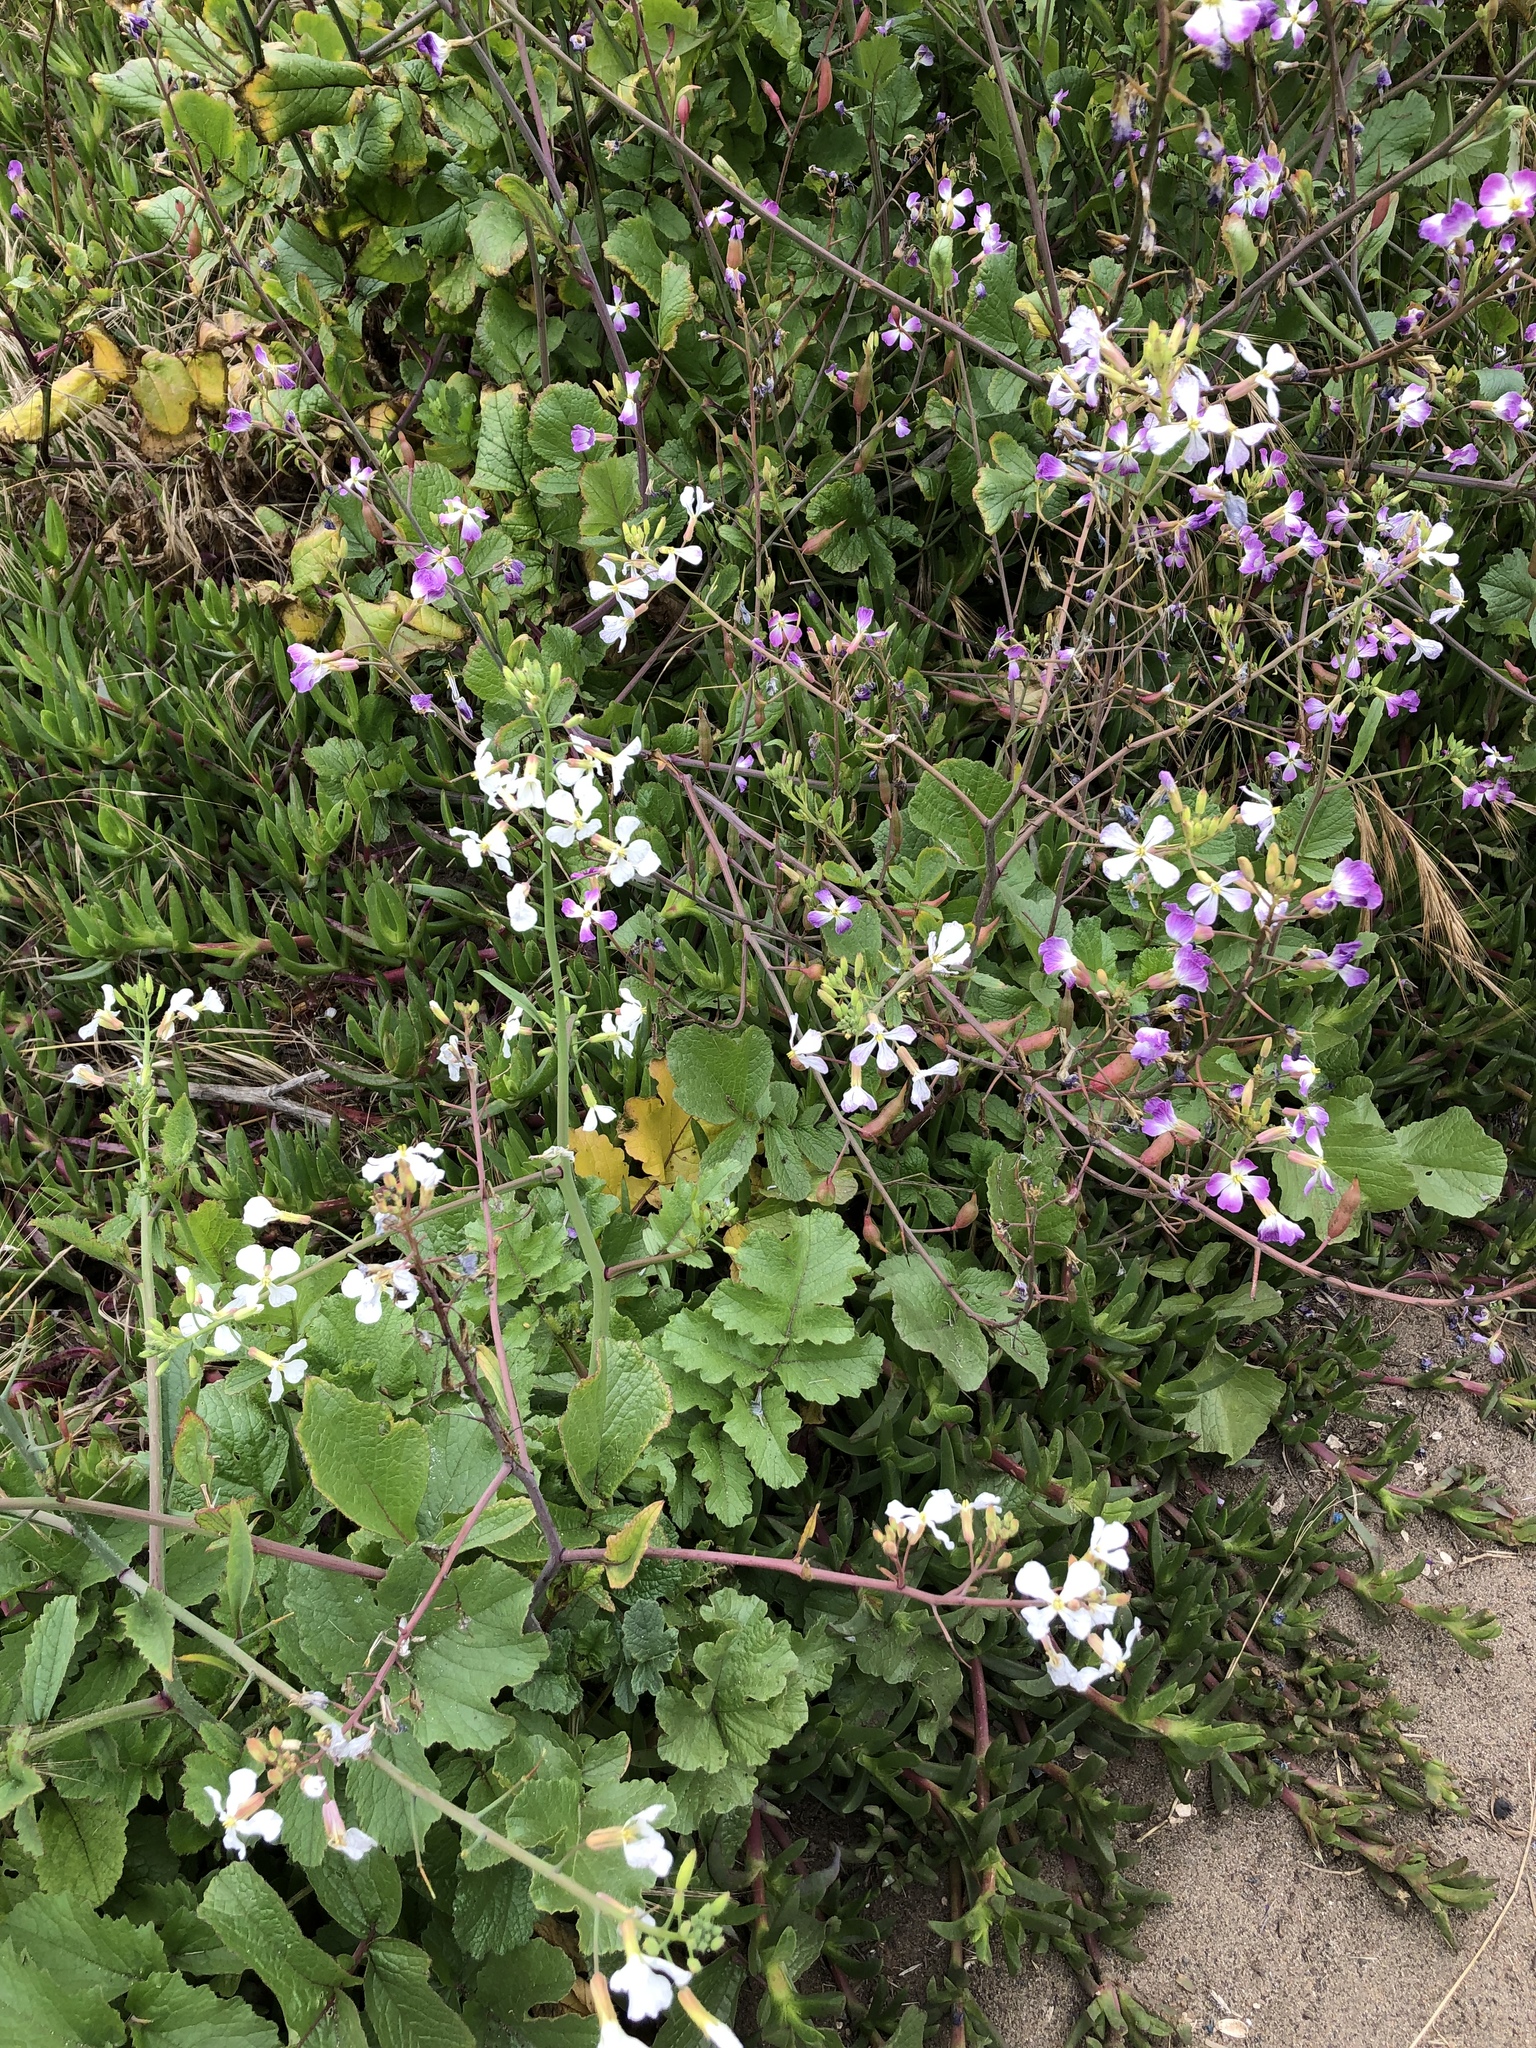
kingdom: Plantae
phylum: Tracheophyta
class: Magnoliopsida
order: Brassicales
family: Brassicaceae
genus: Raphanus
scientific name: Raphanus sativus
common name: Cultivated radish
